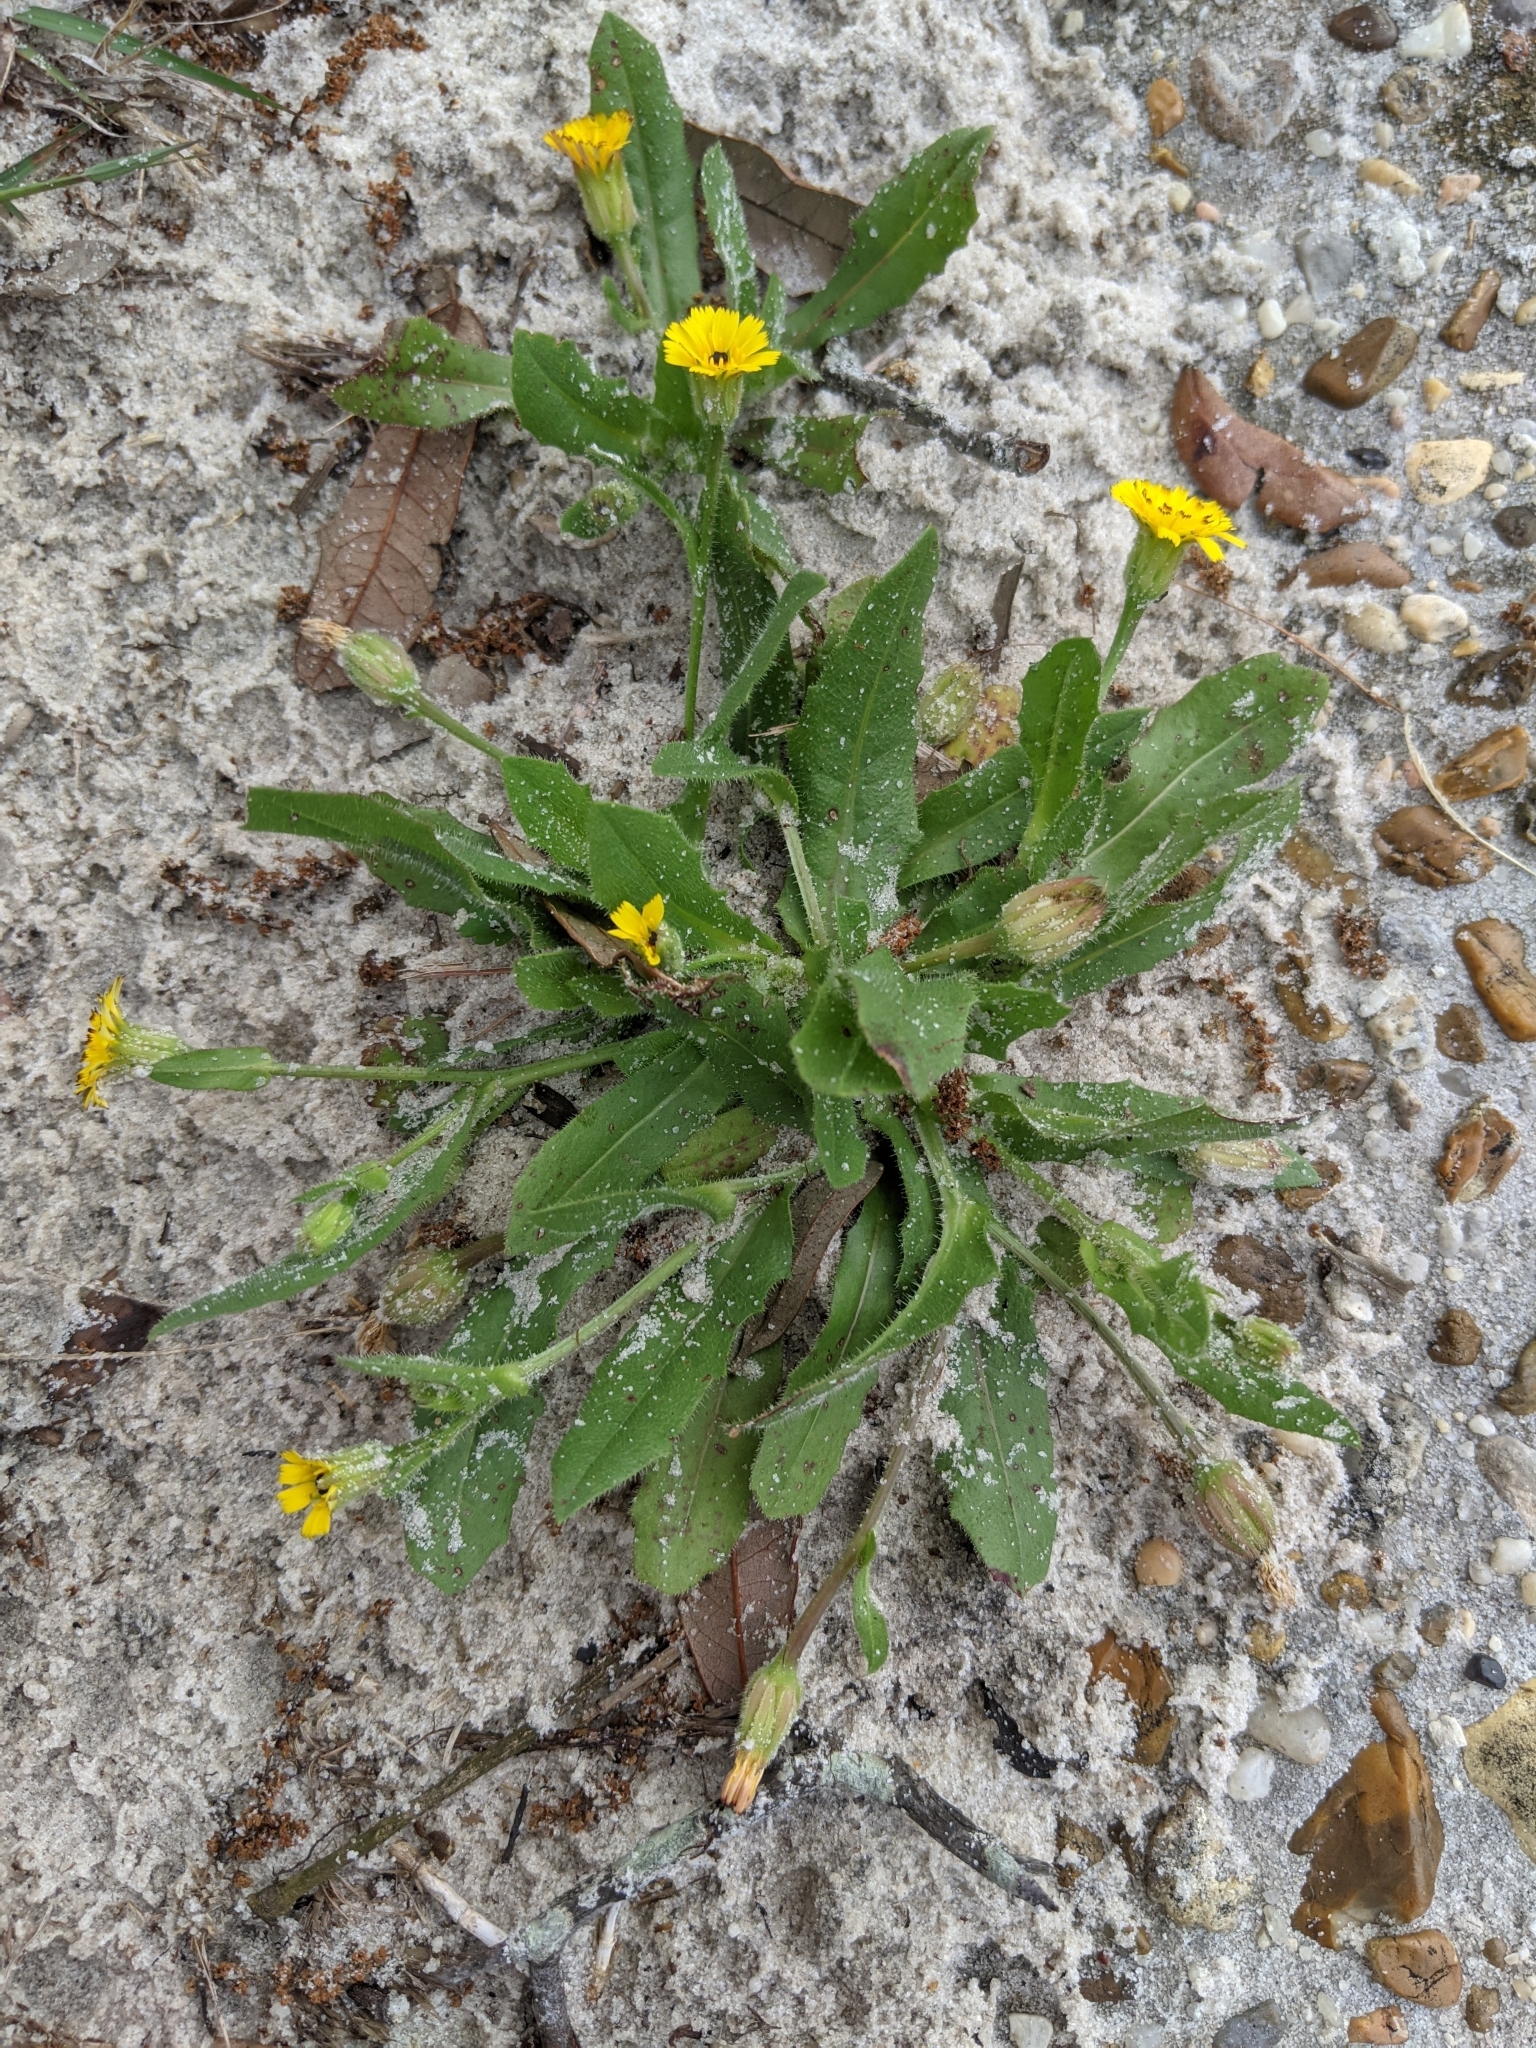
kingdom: Plantae
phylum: Tracheophyta
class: Magnoliopsida
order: Asterales
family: Asteraceae
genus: Hedypnois
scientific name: Hedypnois rhagadioloides
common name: Cretan weed
